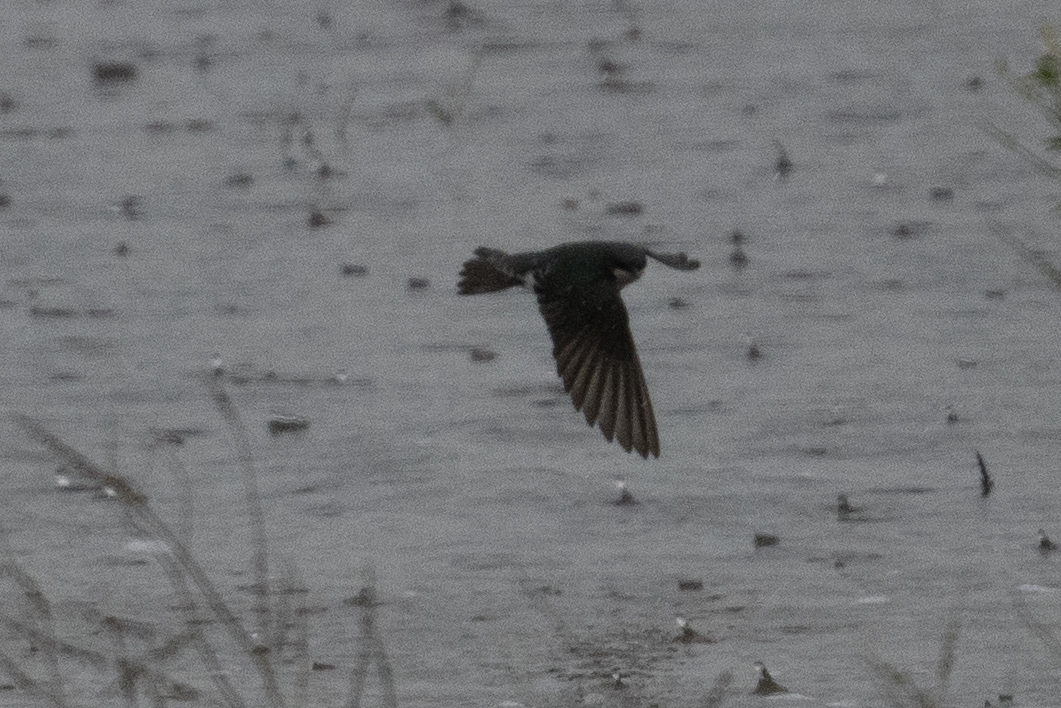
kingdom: Animalia
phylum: Chordata
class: Aves
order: Passeriformes
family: Hirundinidae
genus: Tachycineta
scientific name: Tachycineta bicolor
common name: Tree swallow
